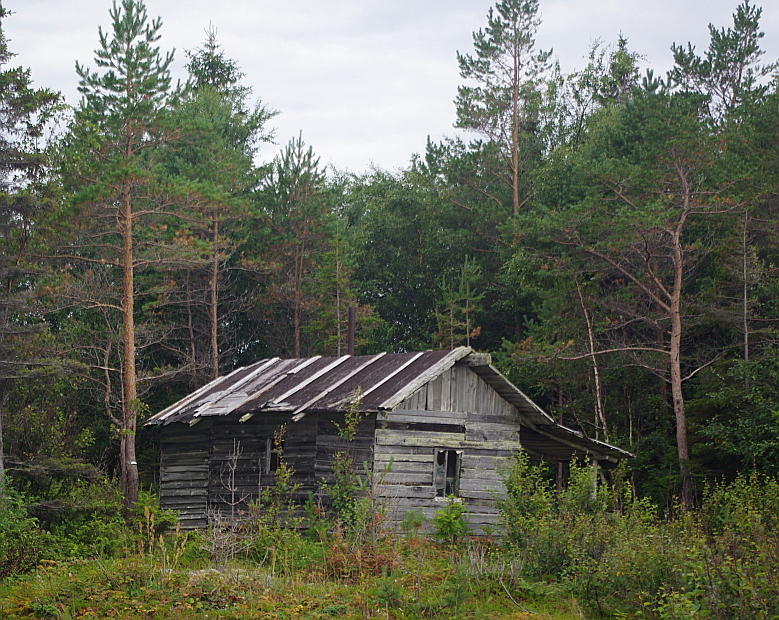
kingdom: Plantae
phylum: Tracheophyta
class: Pinopsida
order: Pinales
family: Pinaceae
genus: Pinus
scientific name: Pinus sylvestris
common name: Scots pine
